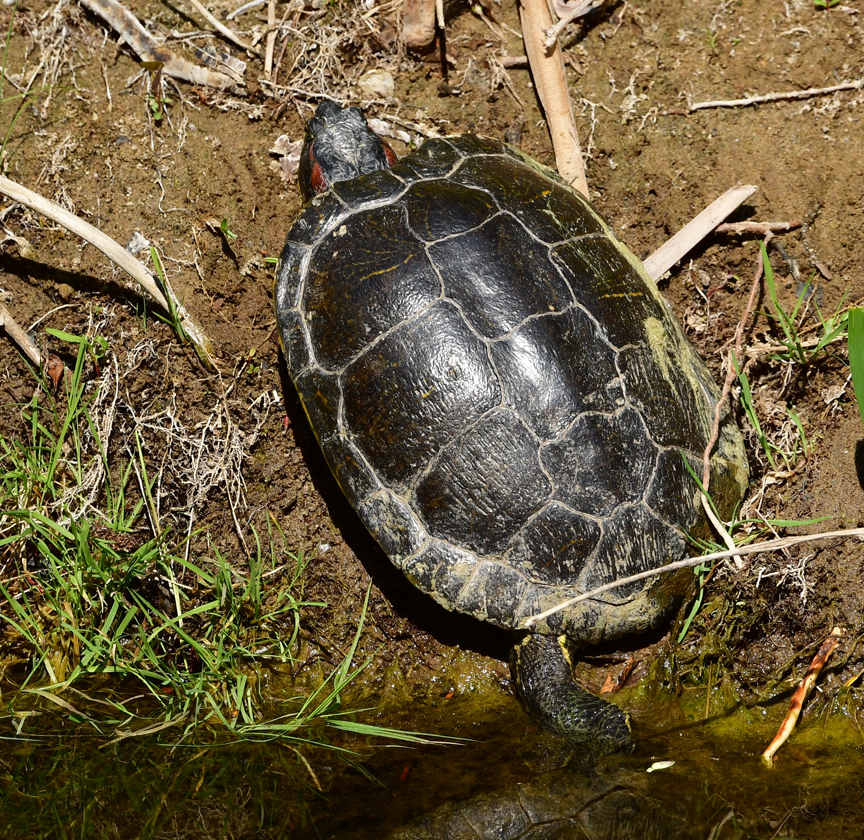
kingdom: Animalia
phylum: Chordata
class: Testudines
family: Emydidae
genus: Trachemys
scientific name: Trachemys scripta
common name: Slider
